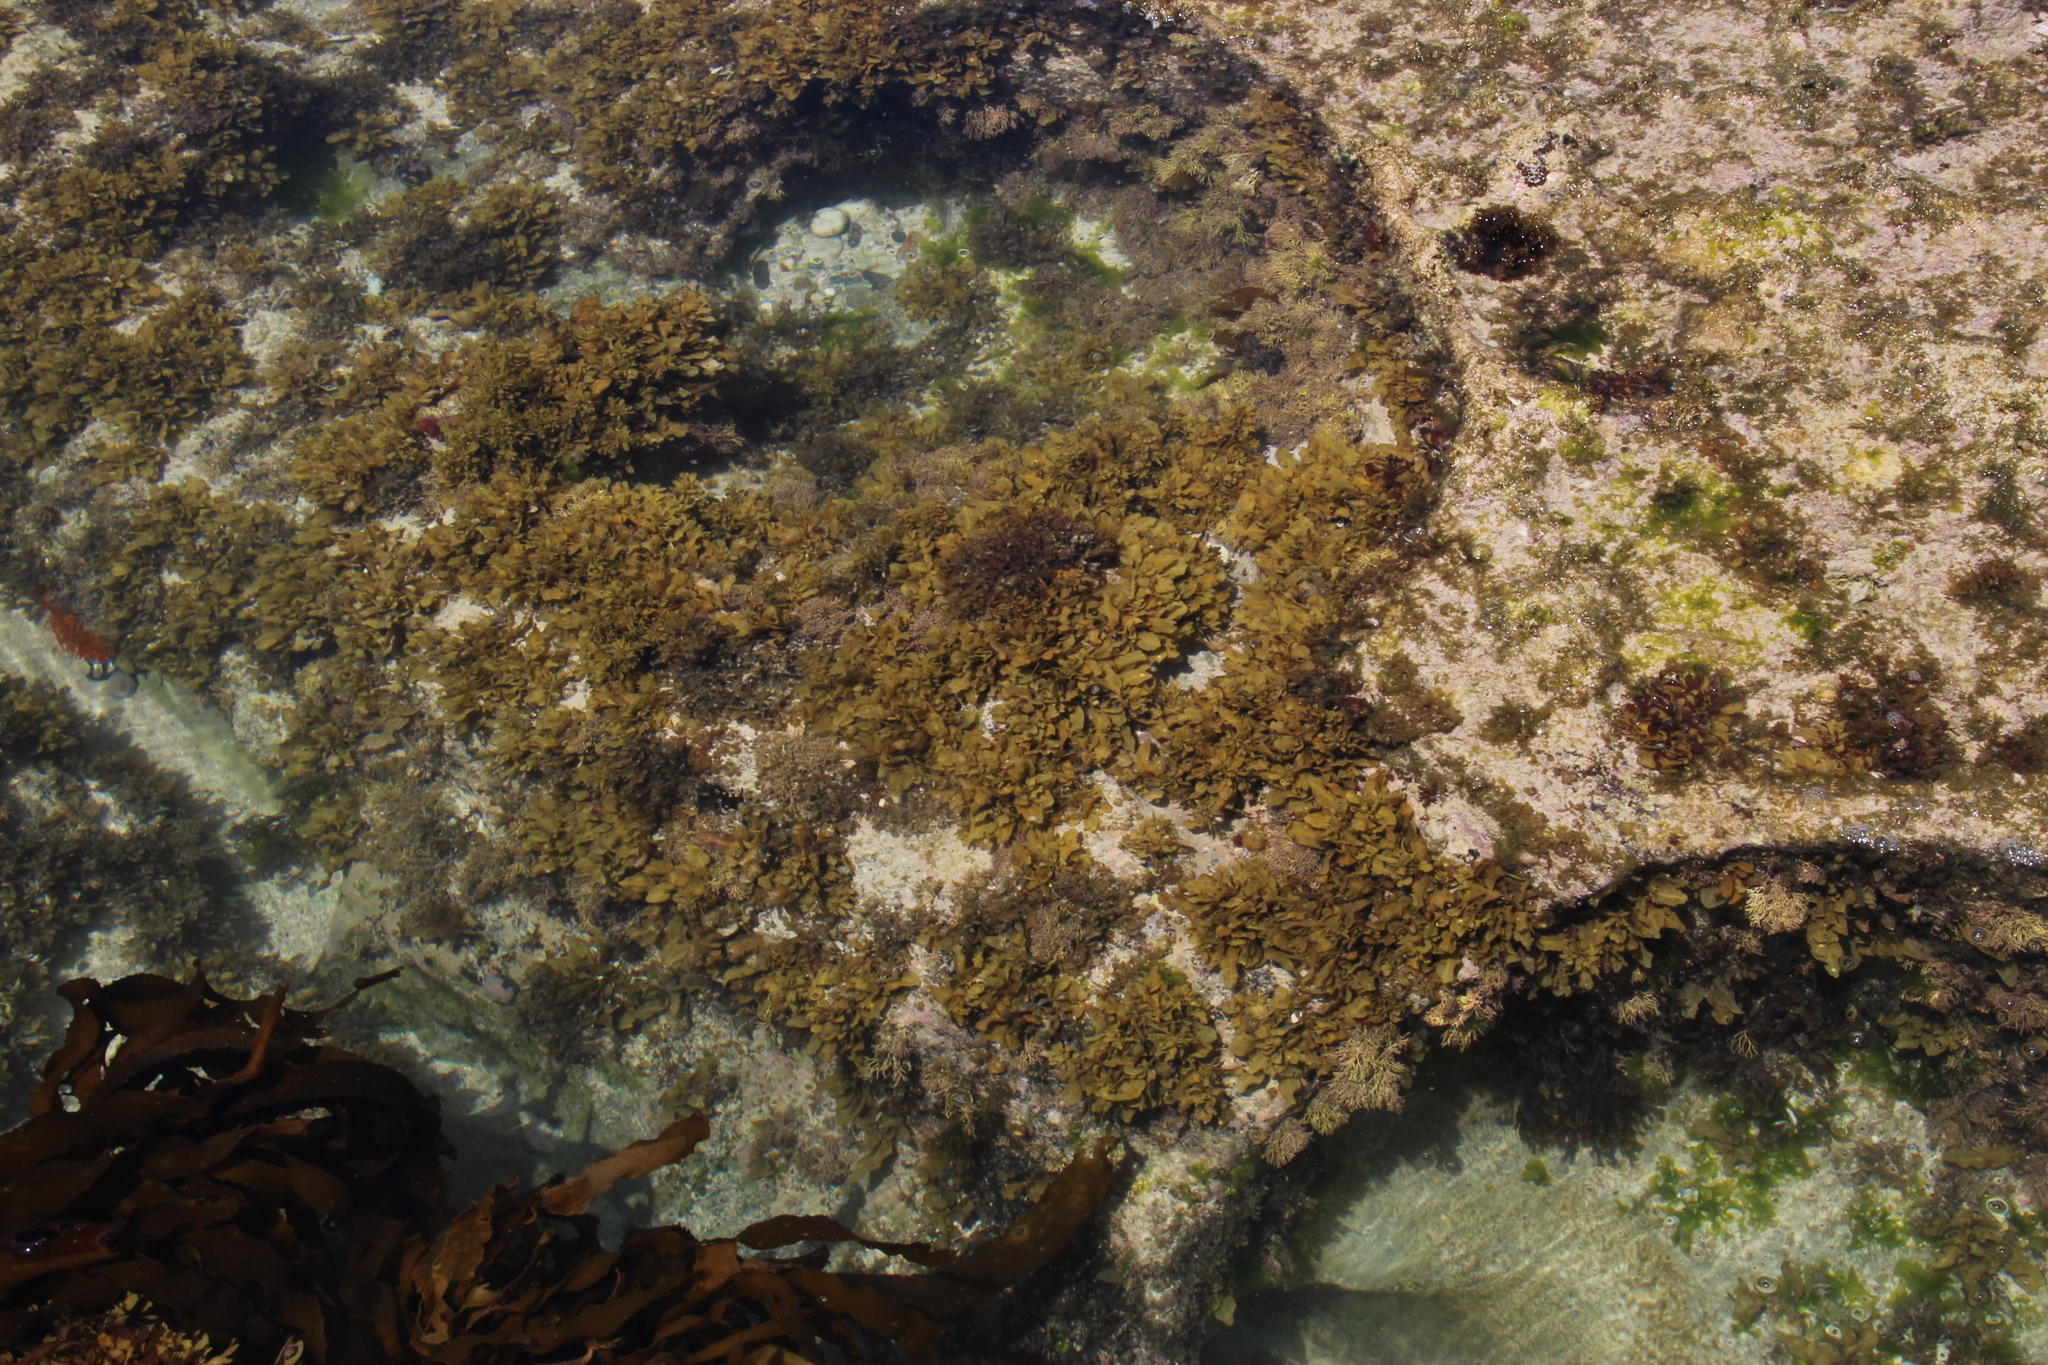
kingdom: Chromista
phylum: Ochrophyta
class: Phaeophyceae
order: Fucales
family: Sargassaceae
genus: Sargassum
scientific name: Sargassum incisifolium
